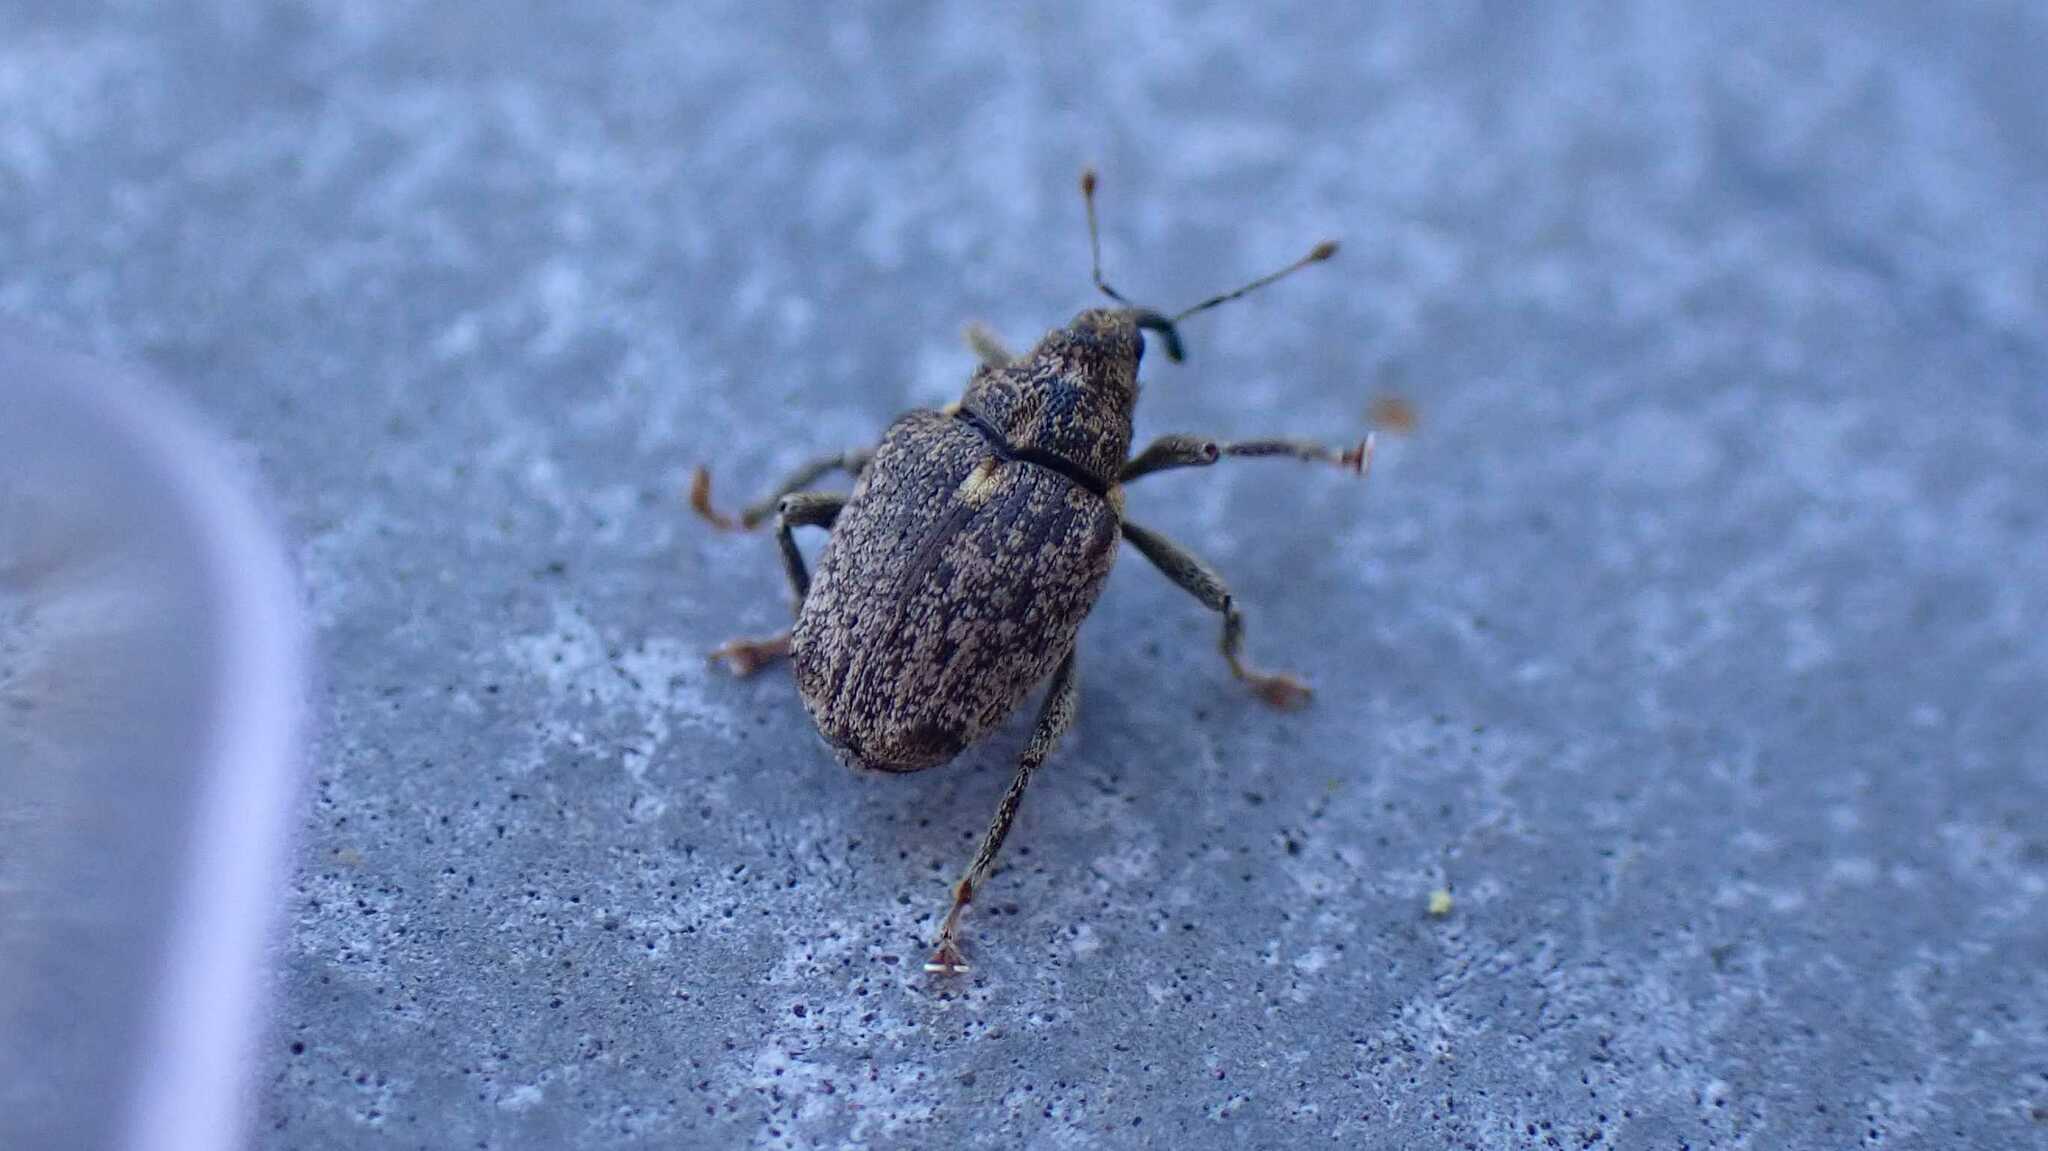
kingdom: Animalia
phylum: Arthropoda
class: Insecta
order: Coleoptera
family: Curculionidae
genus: Ceutorhynchus
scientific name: Ceutorhynchus pallidactylus
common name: Cabbage stem weavil
